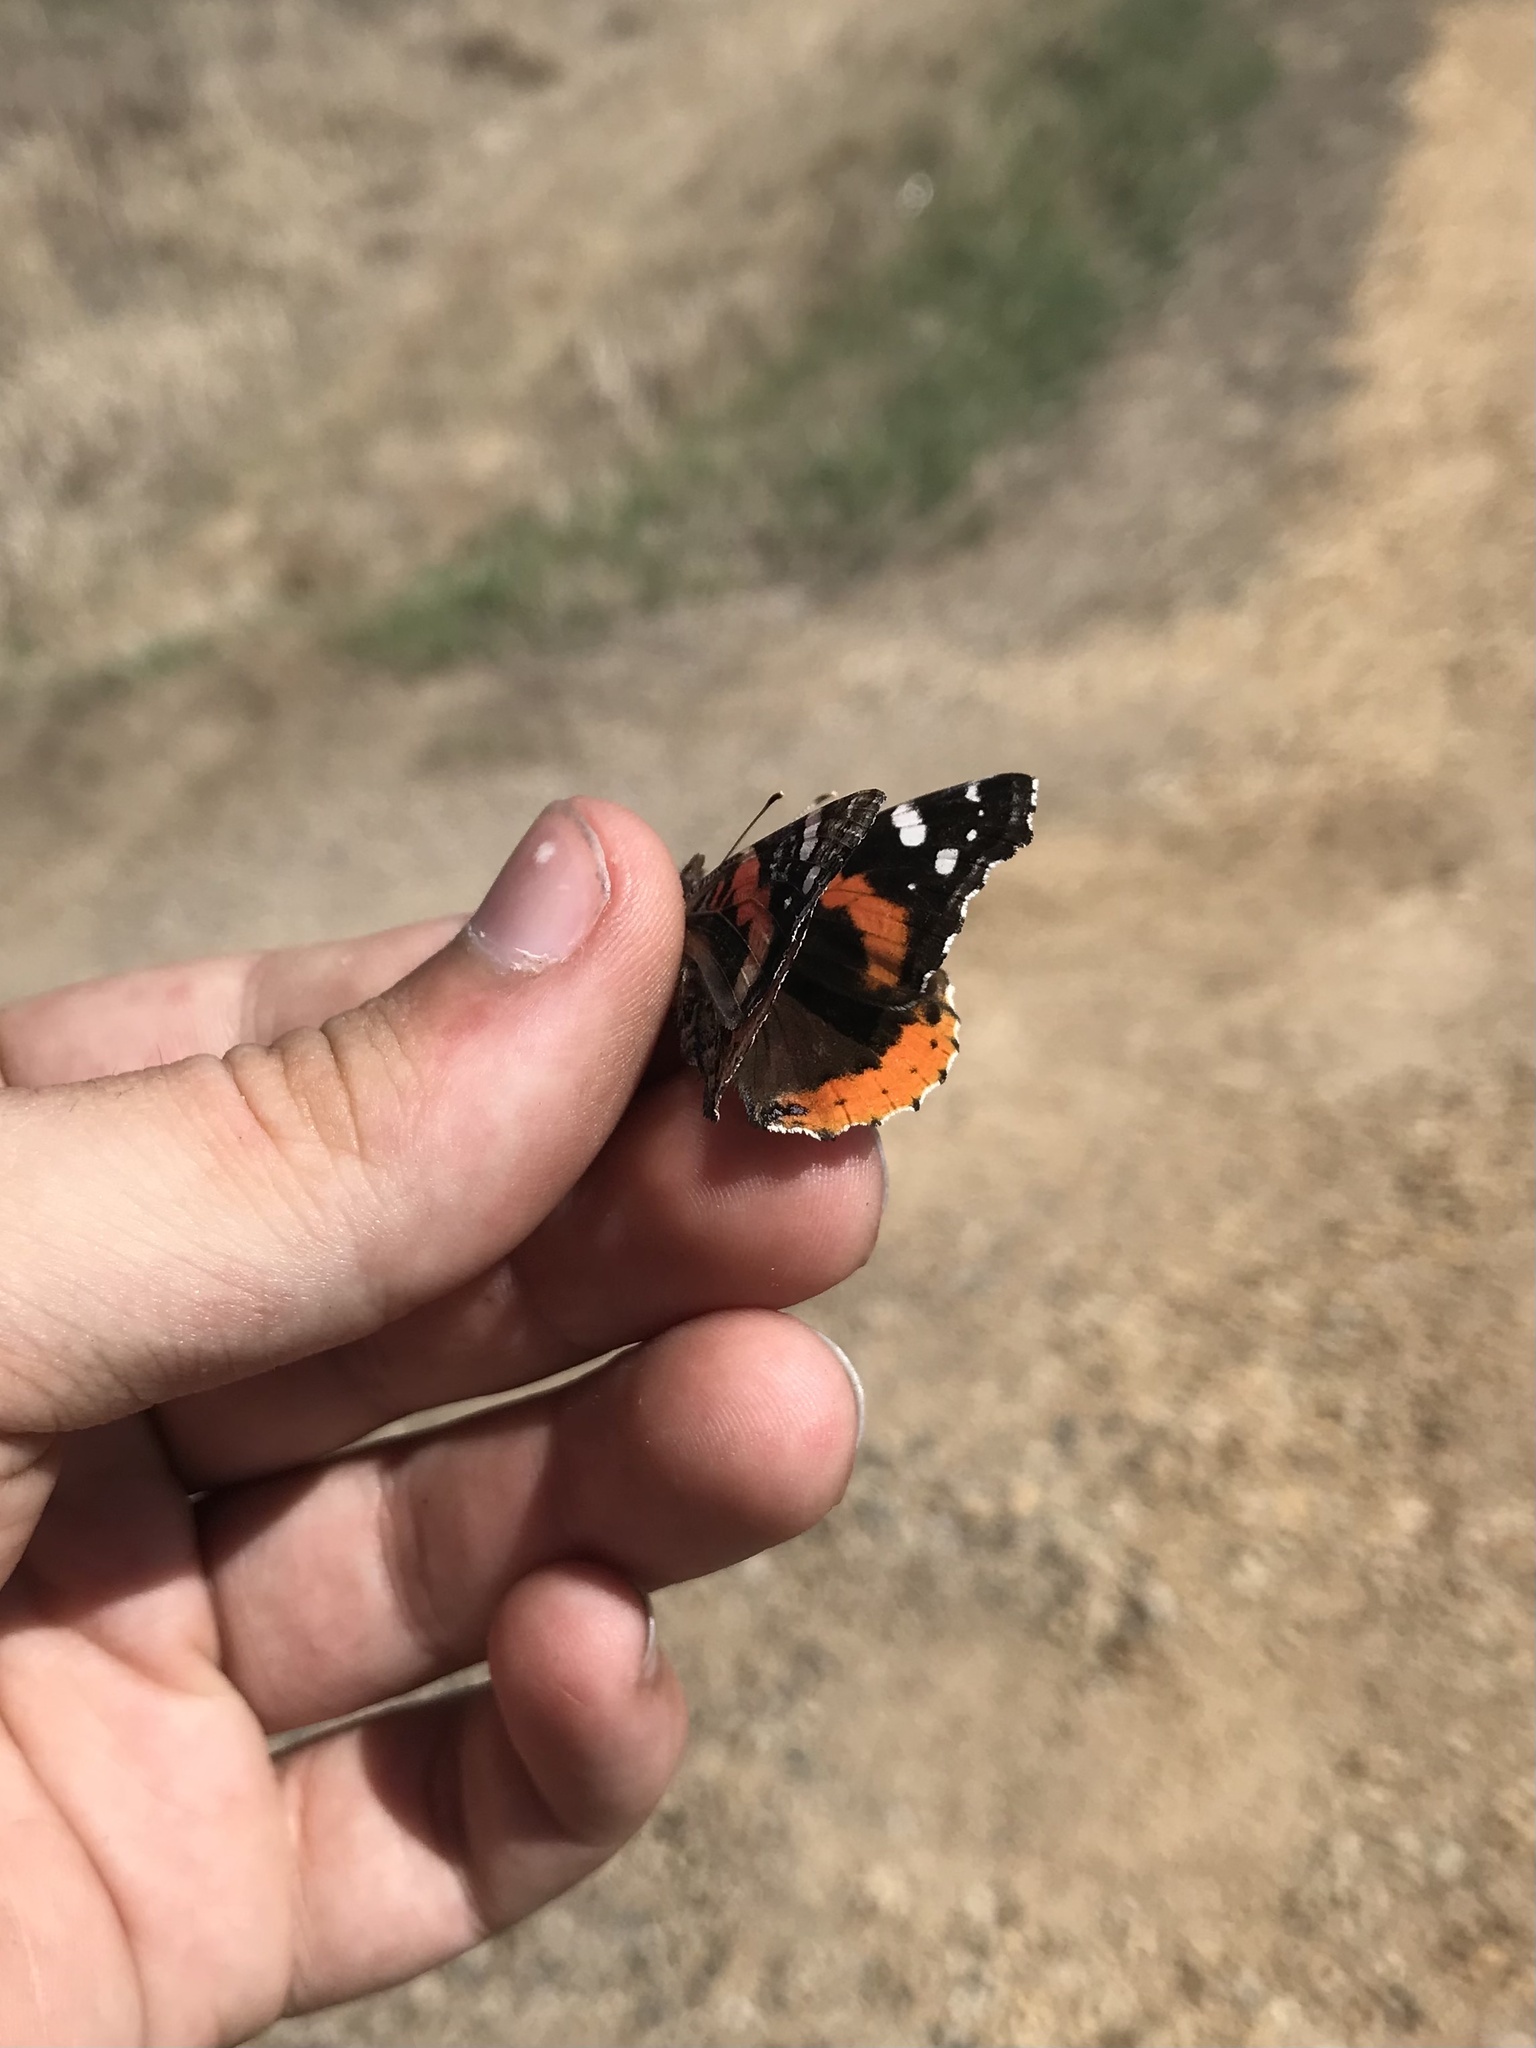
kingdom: Animalia
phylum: Arthropoda
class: Insecta
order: Lepidoptera
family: Nymphalidae
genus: Vanessa
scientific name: Vanessa atalanta
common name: Red admiral
